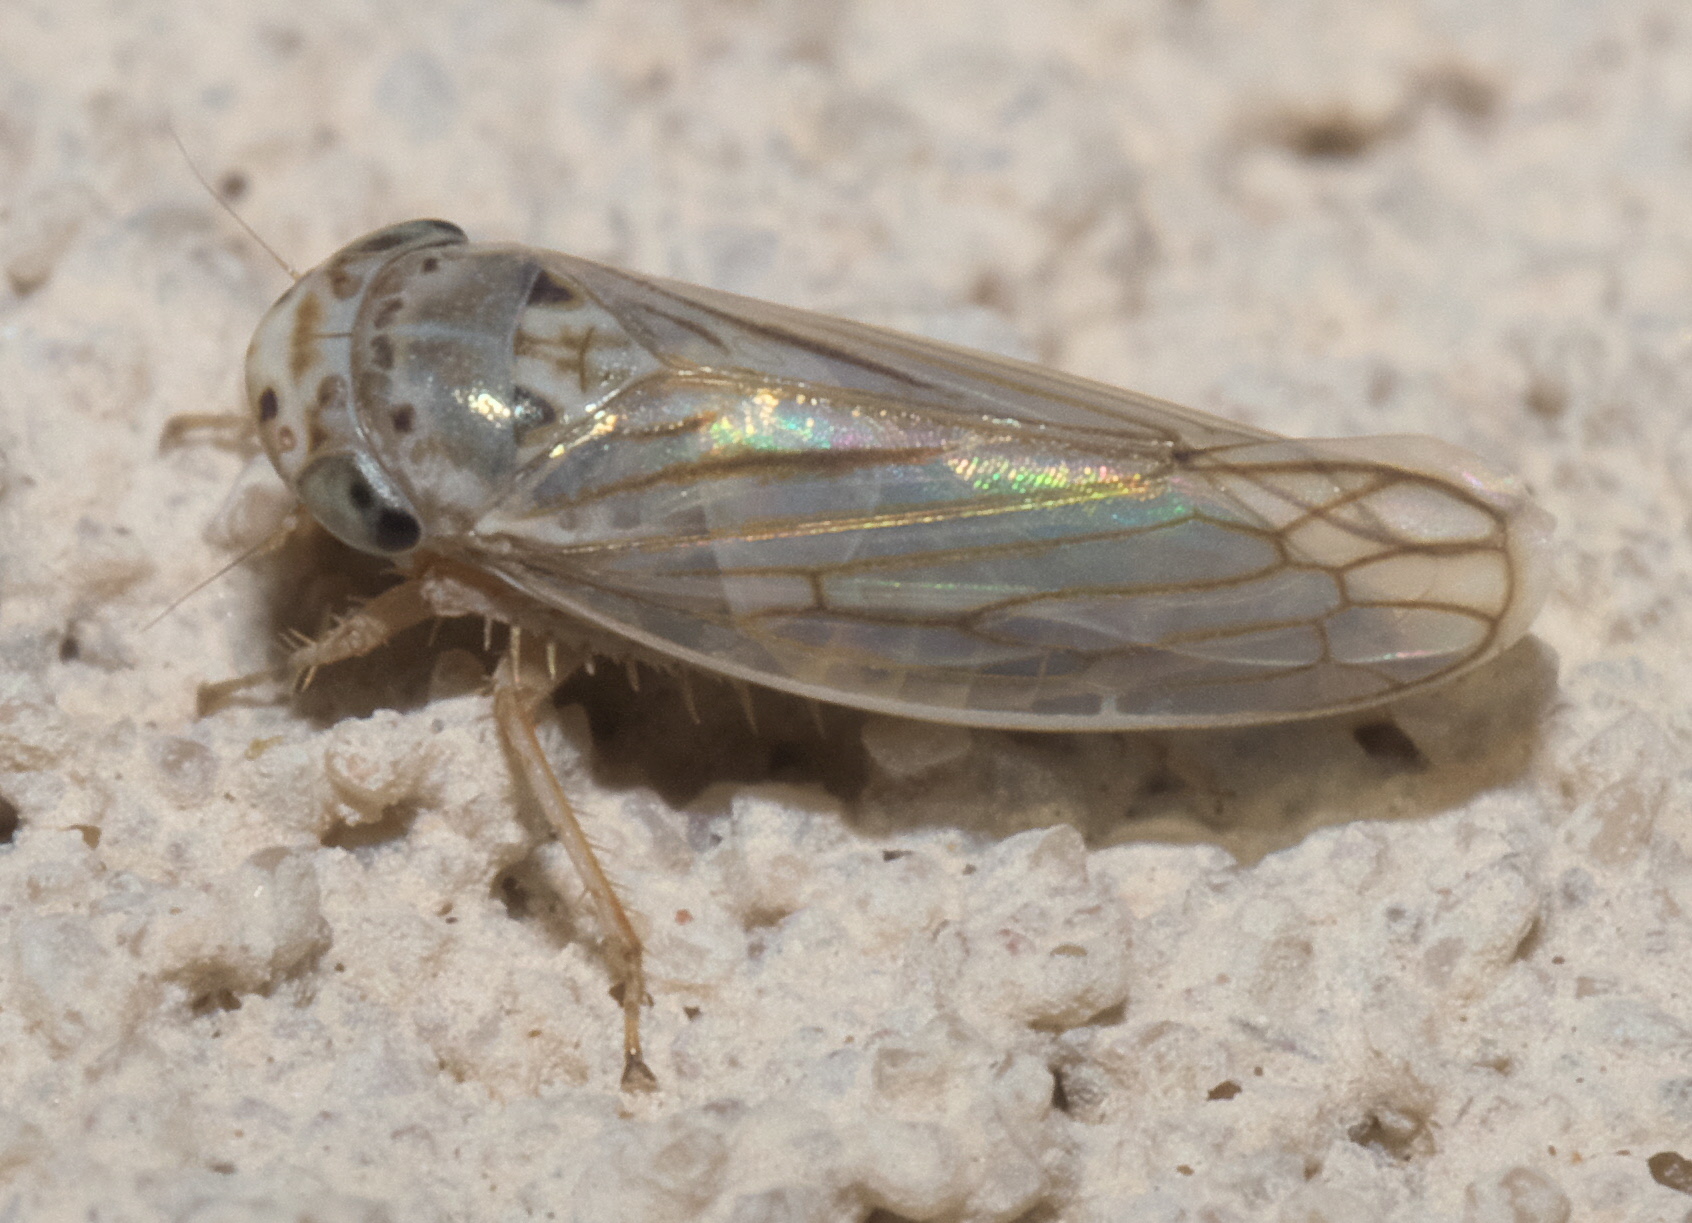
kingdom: Animalia
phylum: Arthropoda
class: Insecta
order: Hemiptera
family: Cicadellidae
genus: Exitianus
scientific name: Exitianus exitiosus
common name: Gray lawn leafhopper
